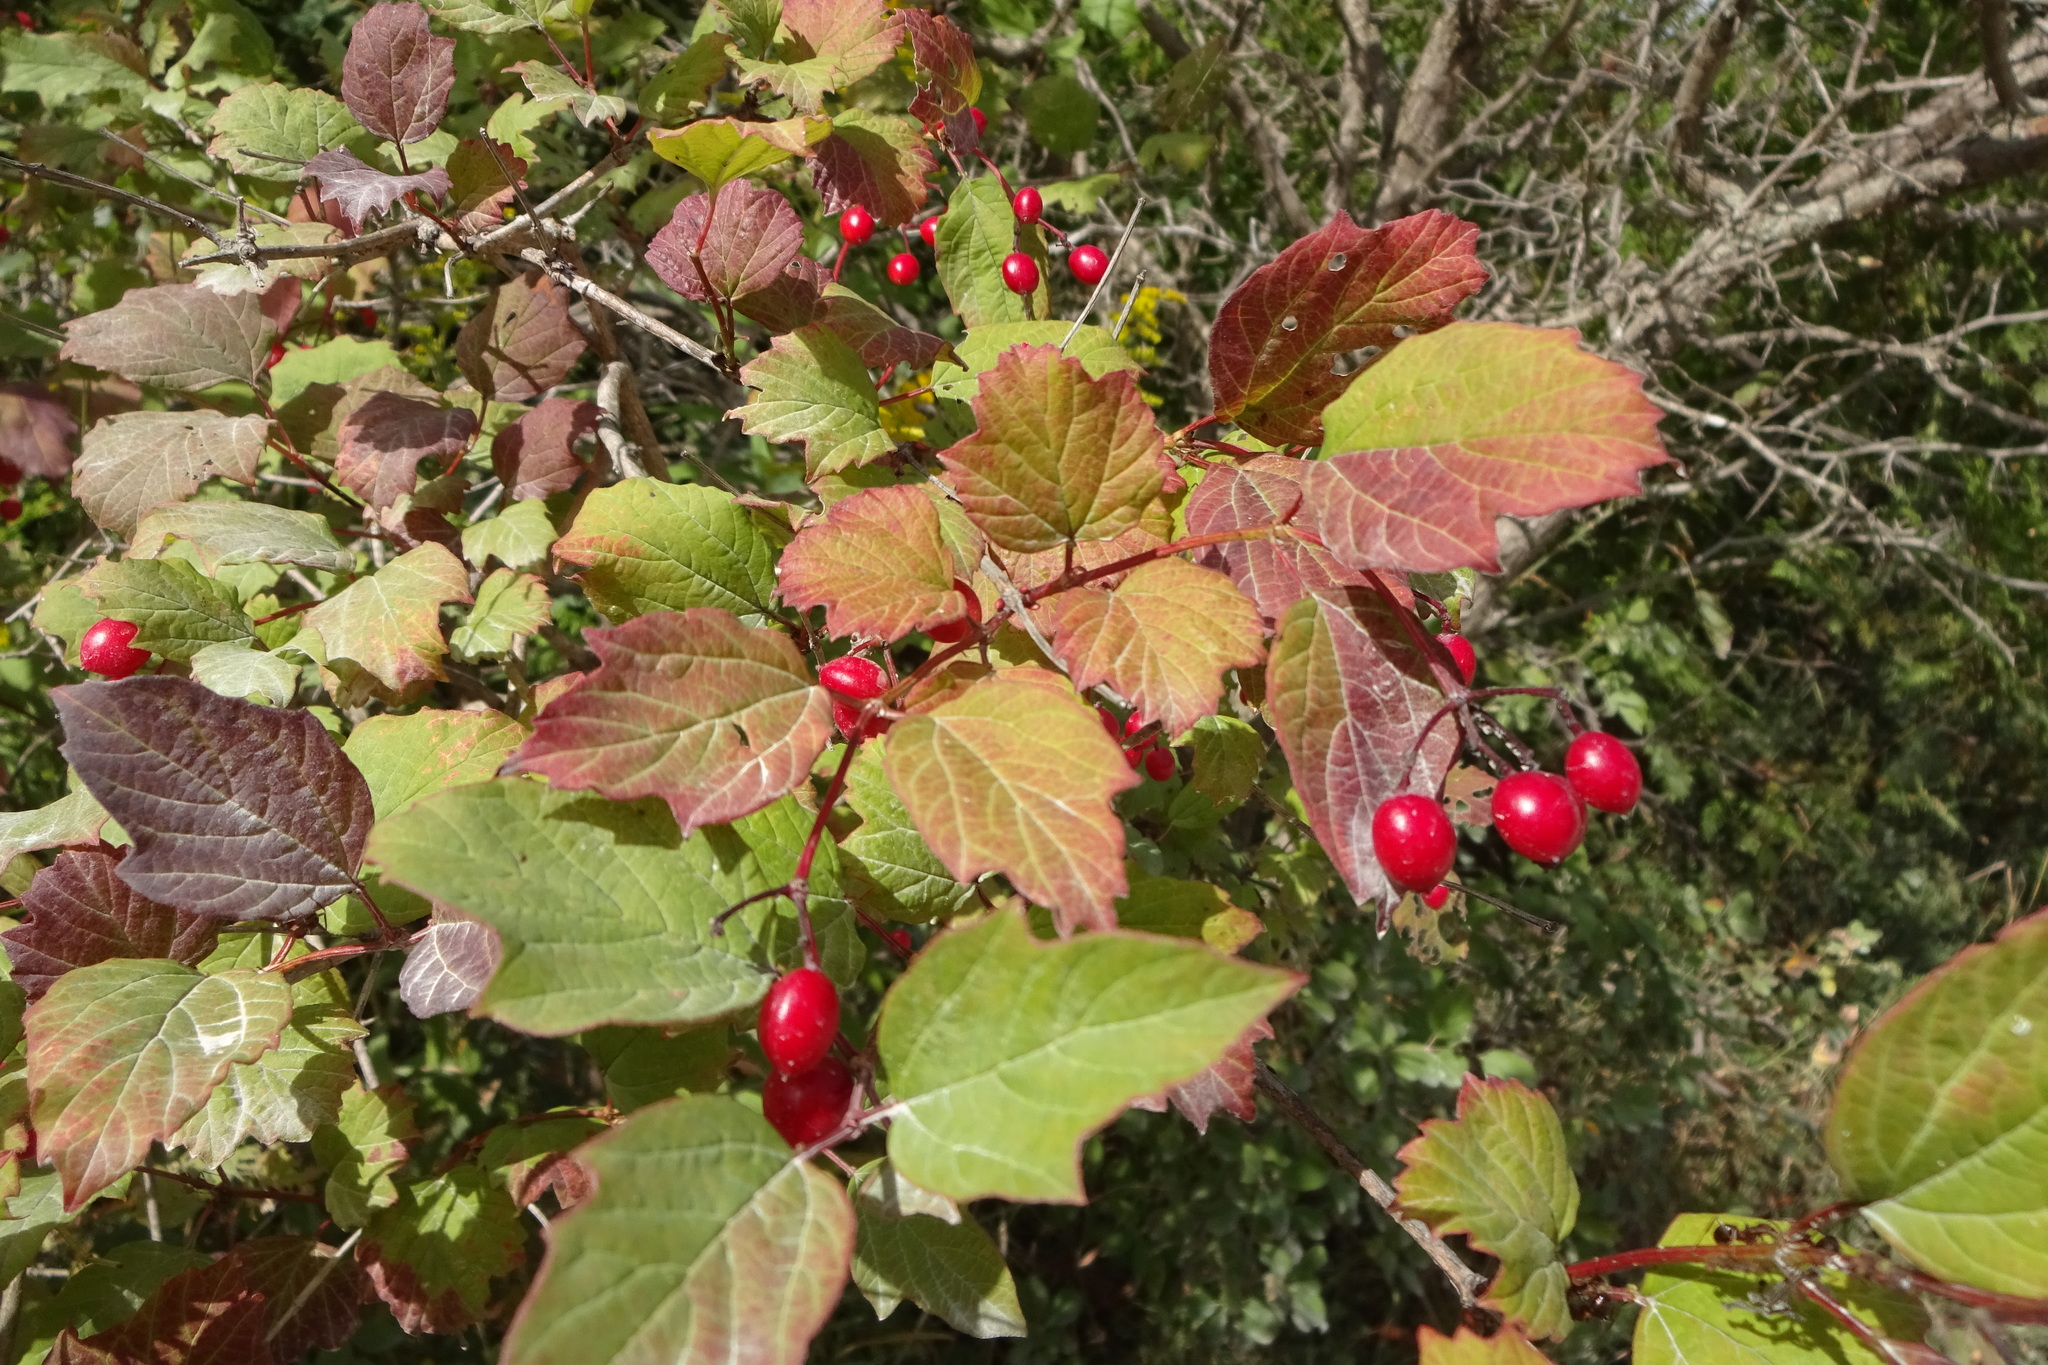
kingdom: Plantae
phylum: Tracheophyta
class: Magnoliopsida
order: Dipsacales
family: Viburnaceae
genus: Viburnum
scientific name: Viburnum opulus
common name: Guelder-rose
